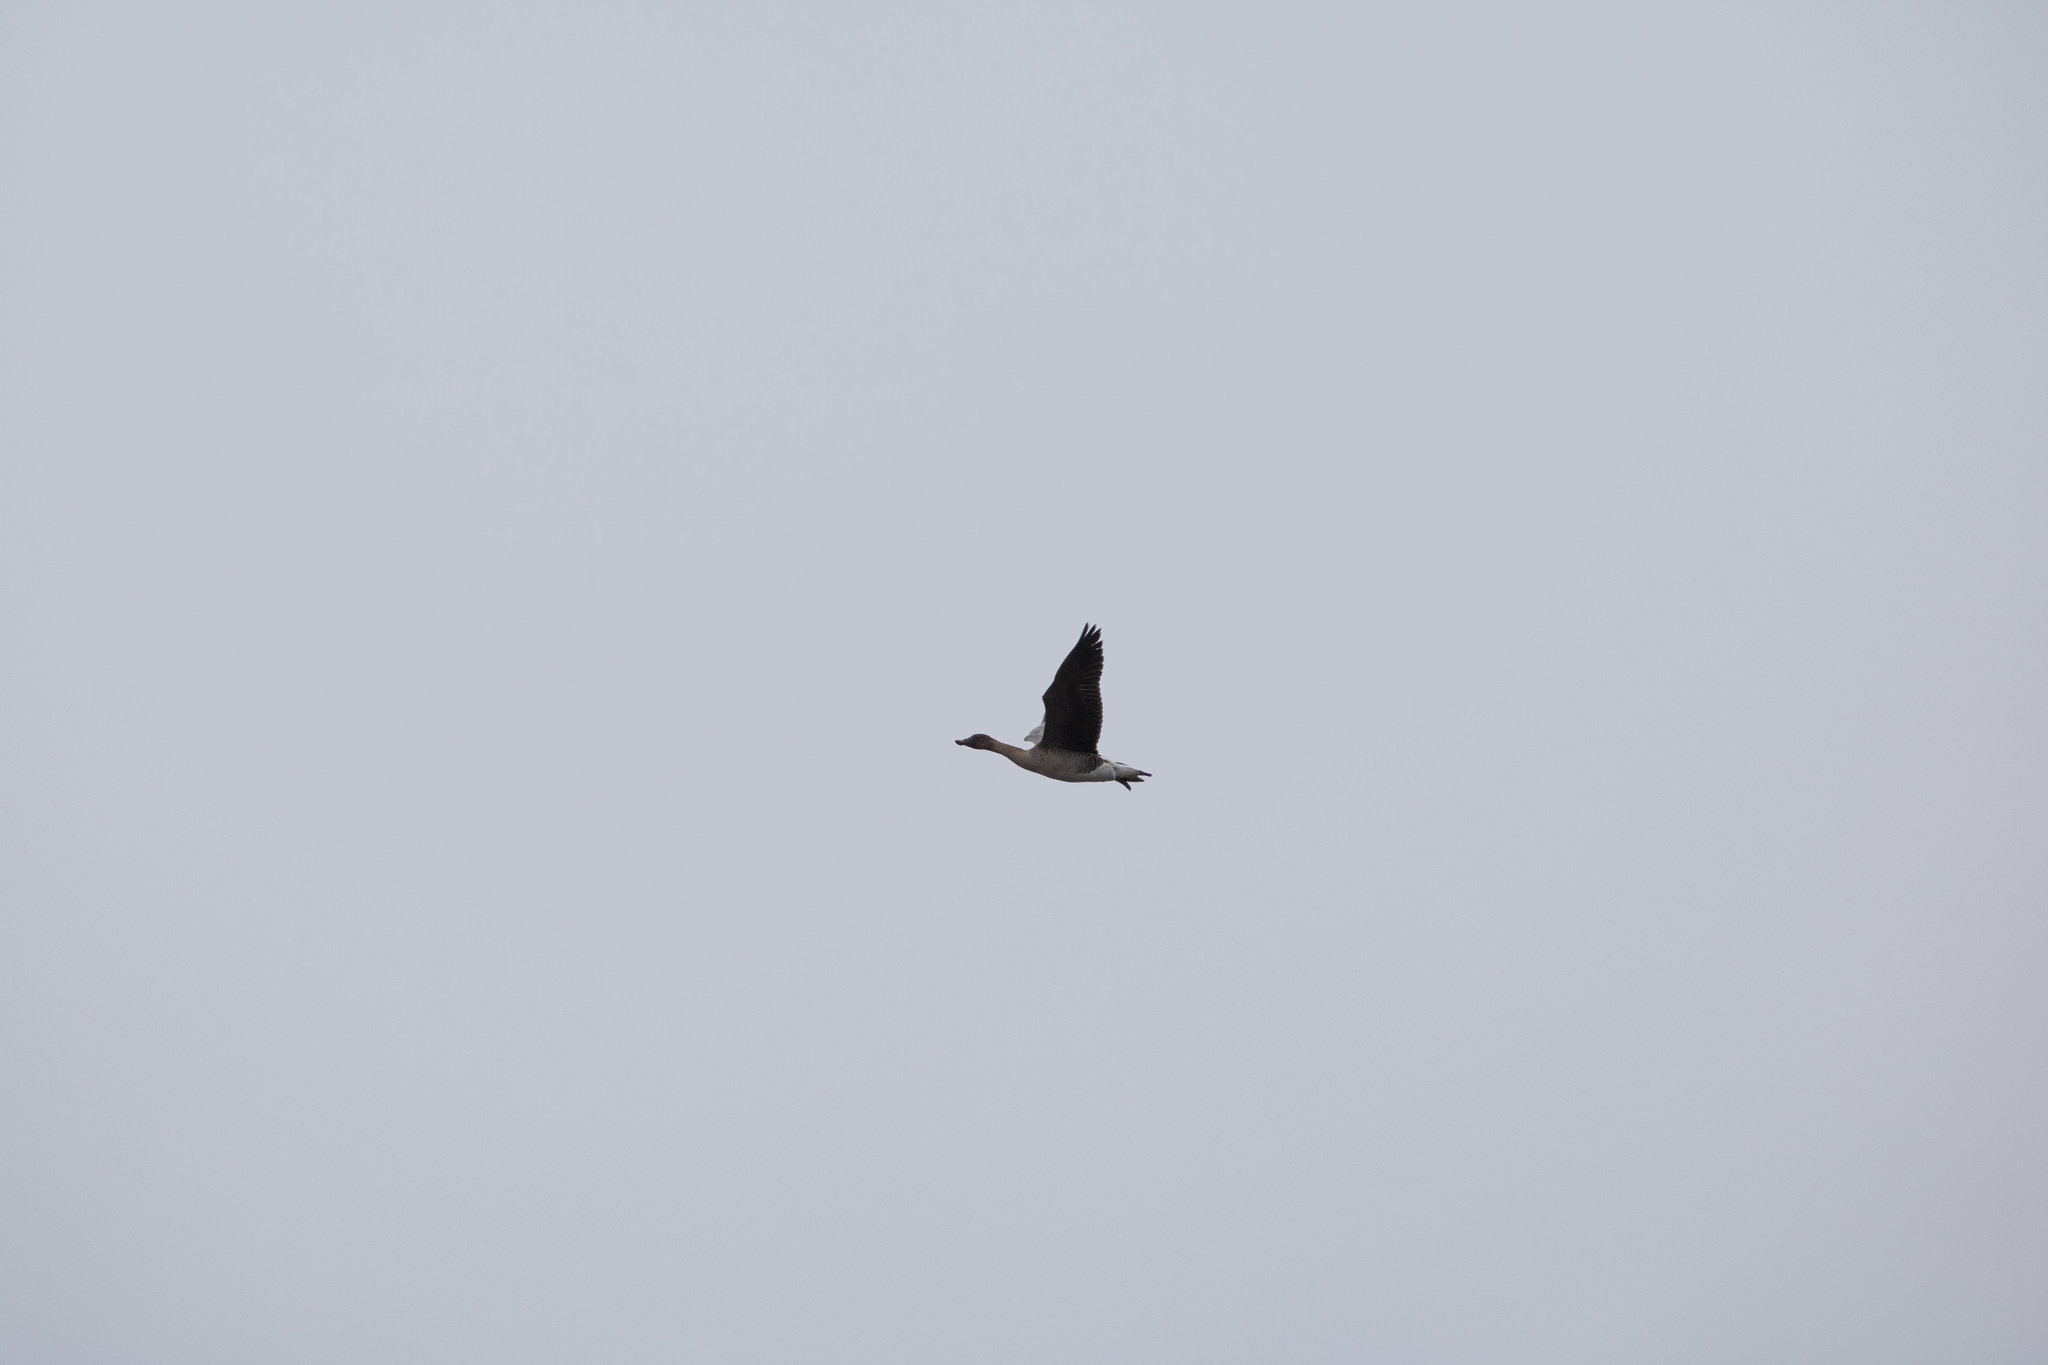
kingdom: Animalia
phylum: Chordata
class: Aves
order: Anseriformes
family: Anatidae
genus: Anser
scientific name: Anser fabalis
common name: Bean goose
